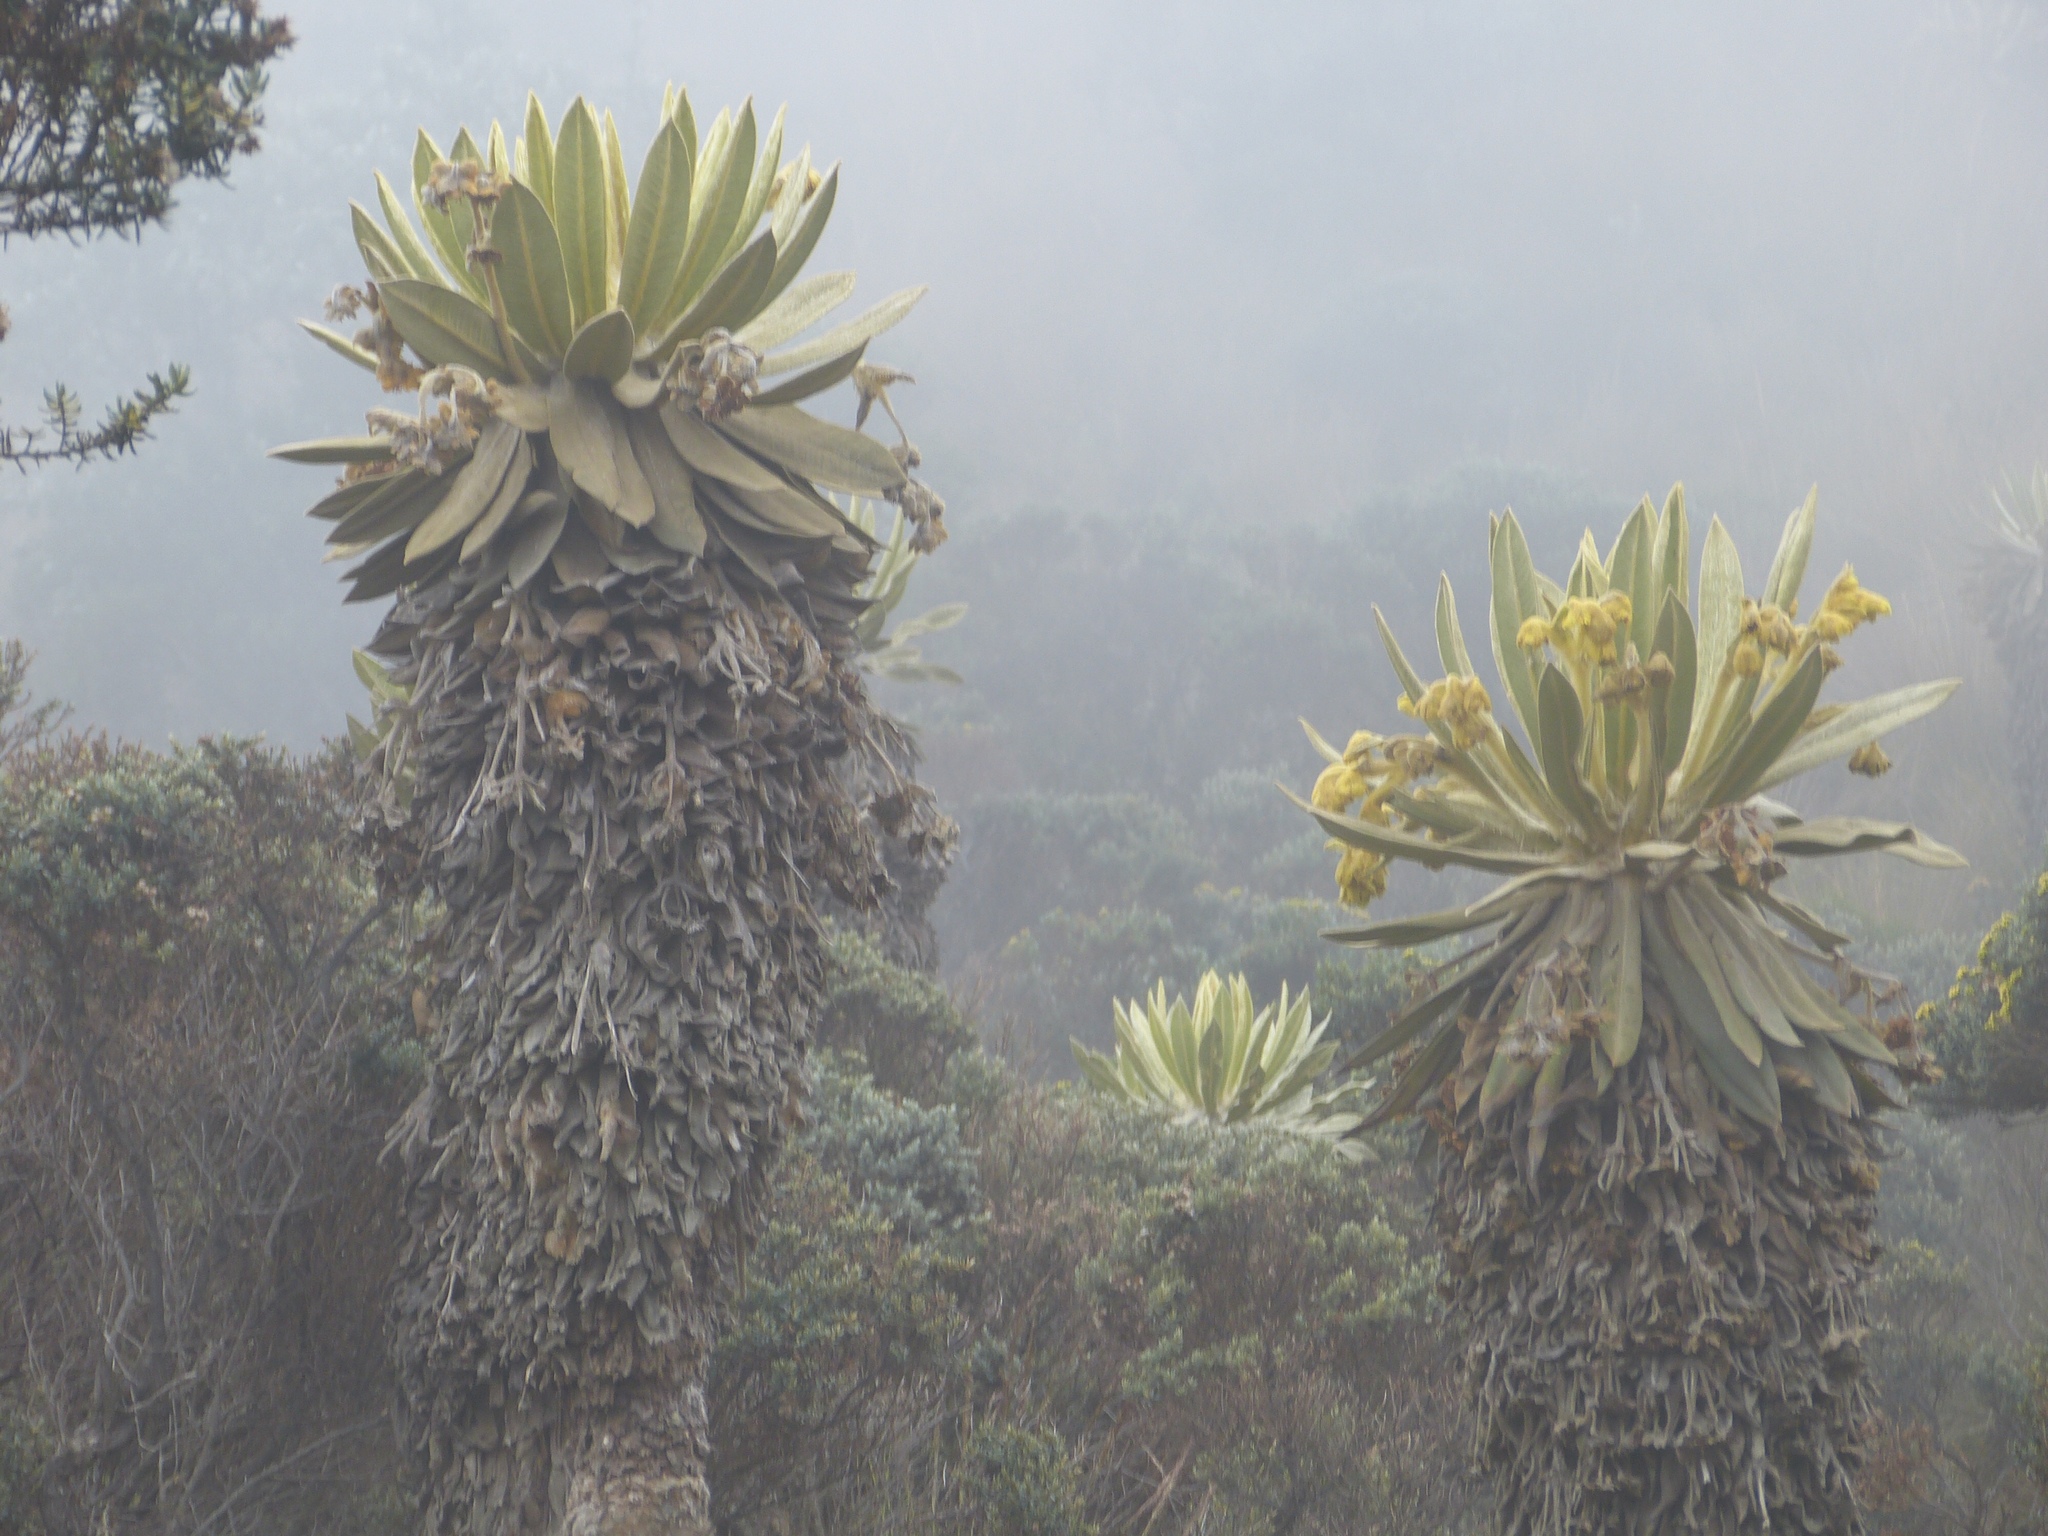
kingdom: Plantae
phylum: Tracheophyta
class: Magnoliopsida
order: Asterales
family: Asteraceae
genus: Espeletia
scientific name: Espeletia hartwegiana
